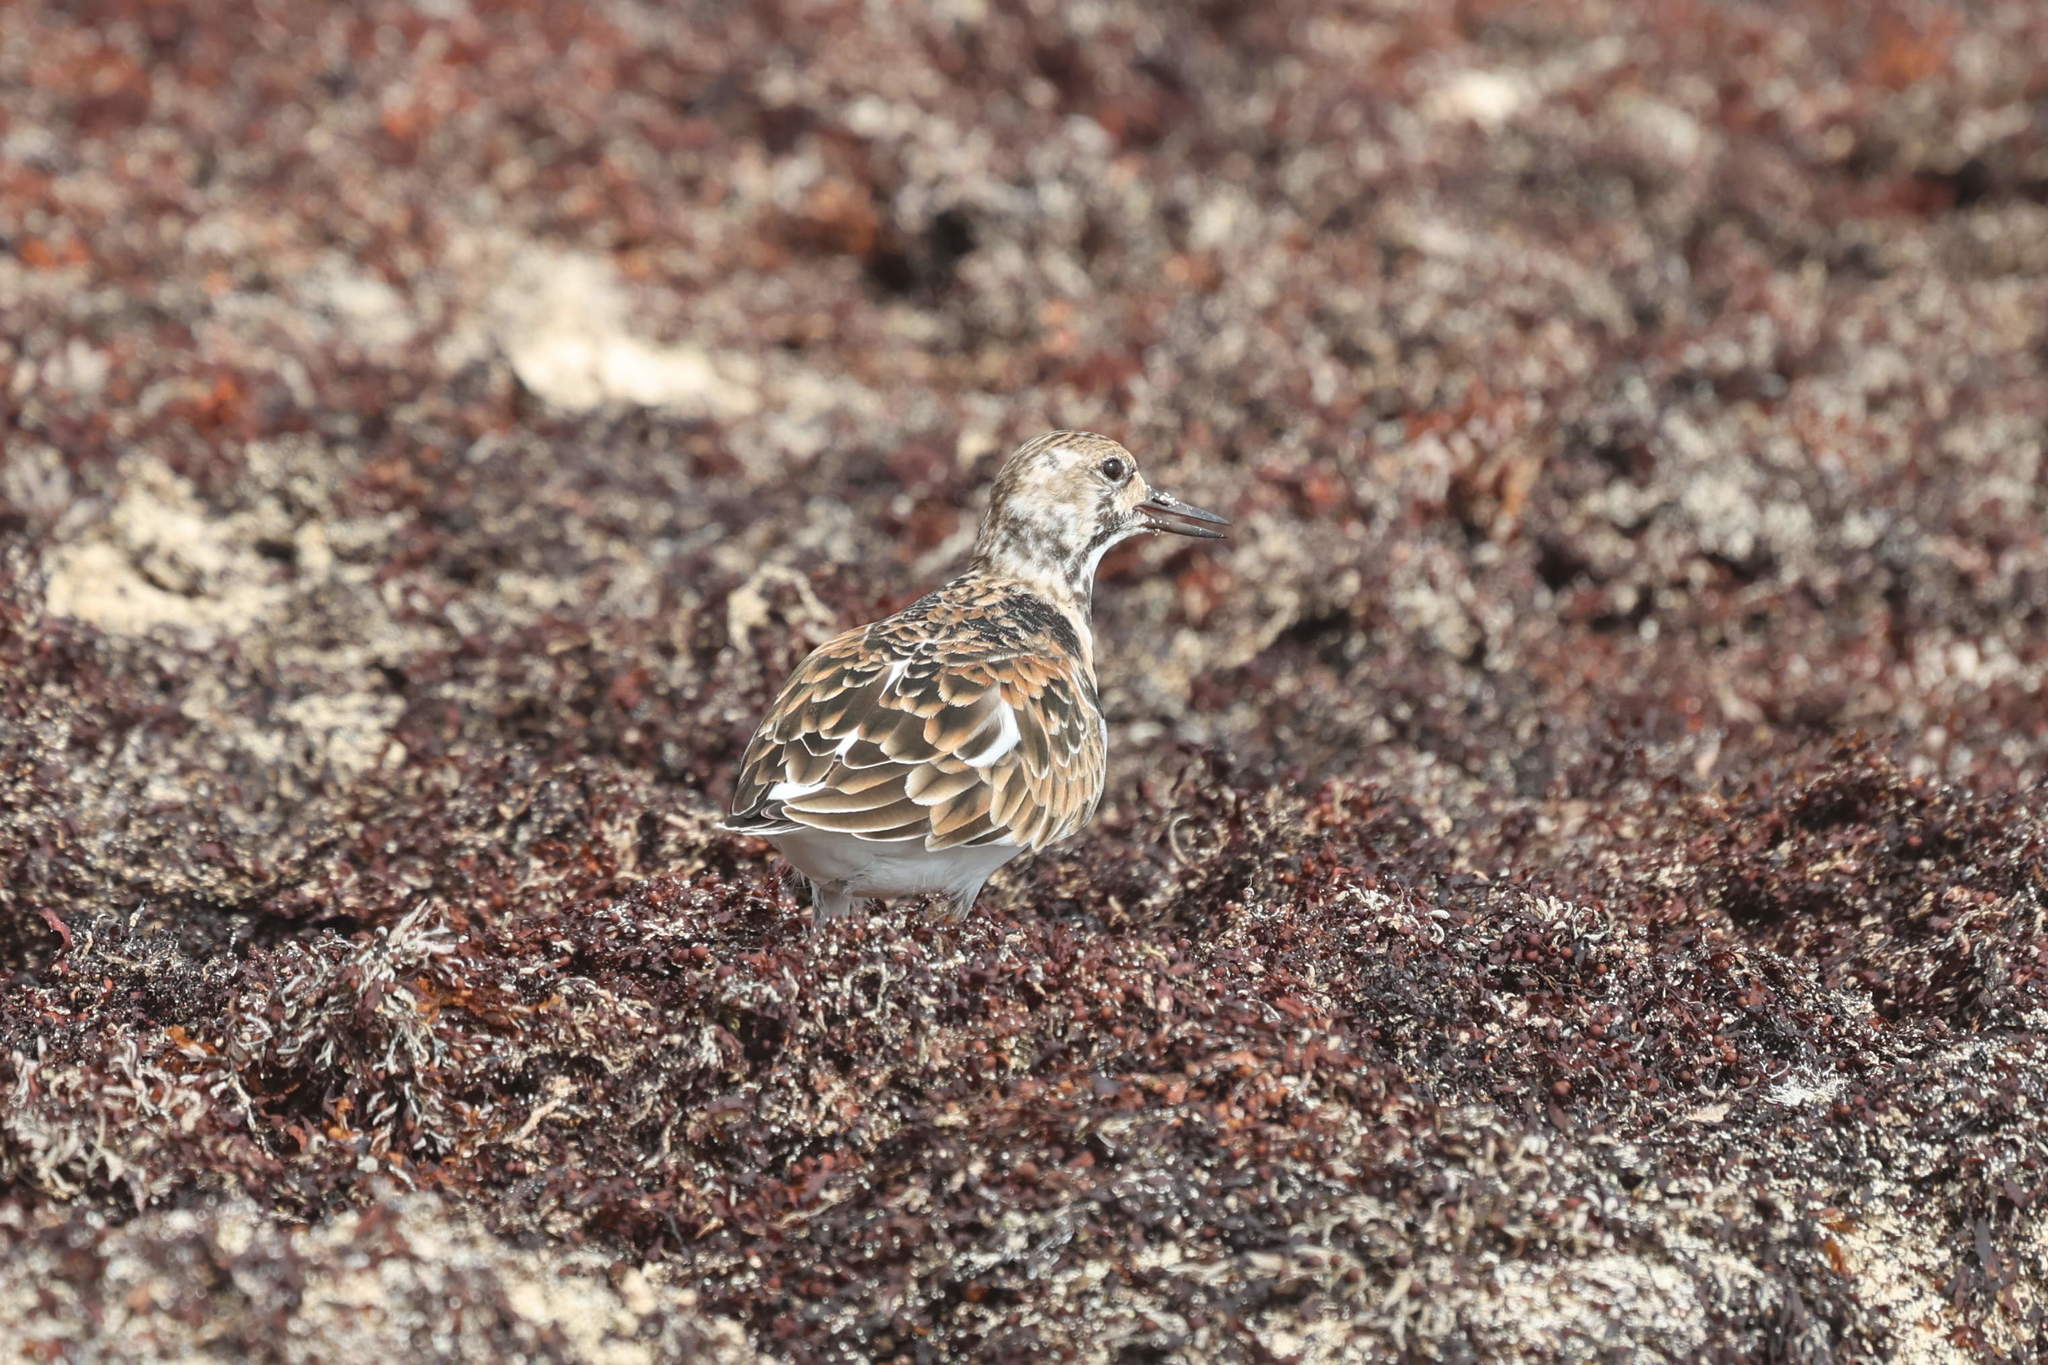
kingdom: Animalia
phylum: Chordata
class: Aves
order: Charadriiformes
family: Scolopacidae
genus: Arenaria
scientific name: Arenaria interpres
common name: Ruddy turnstone
